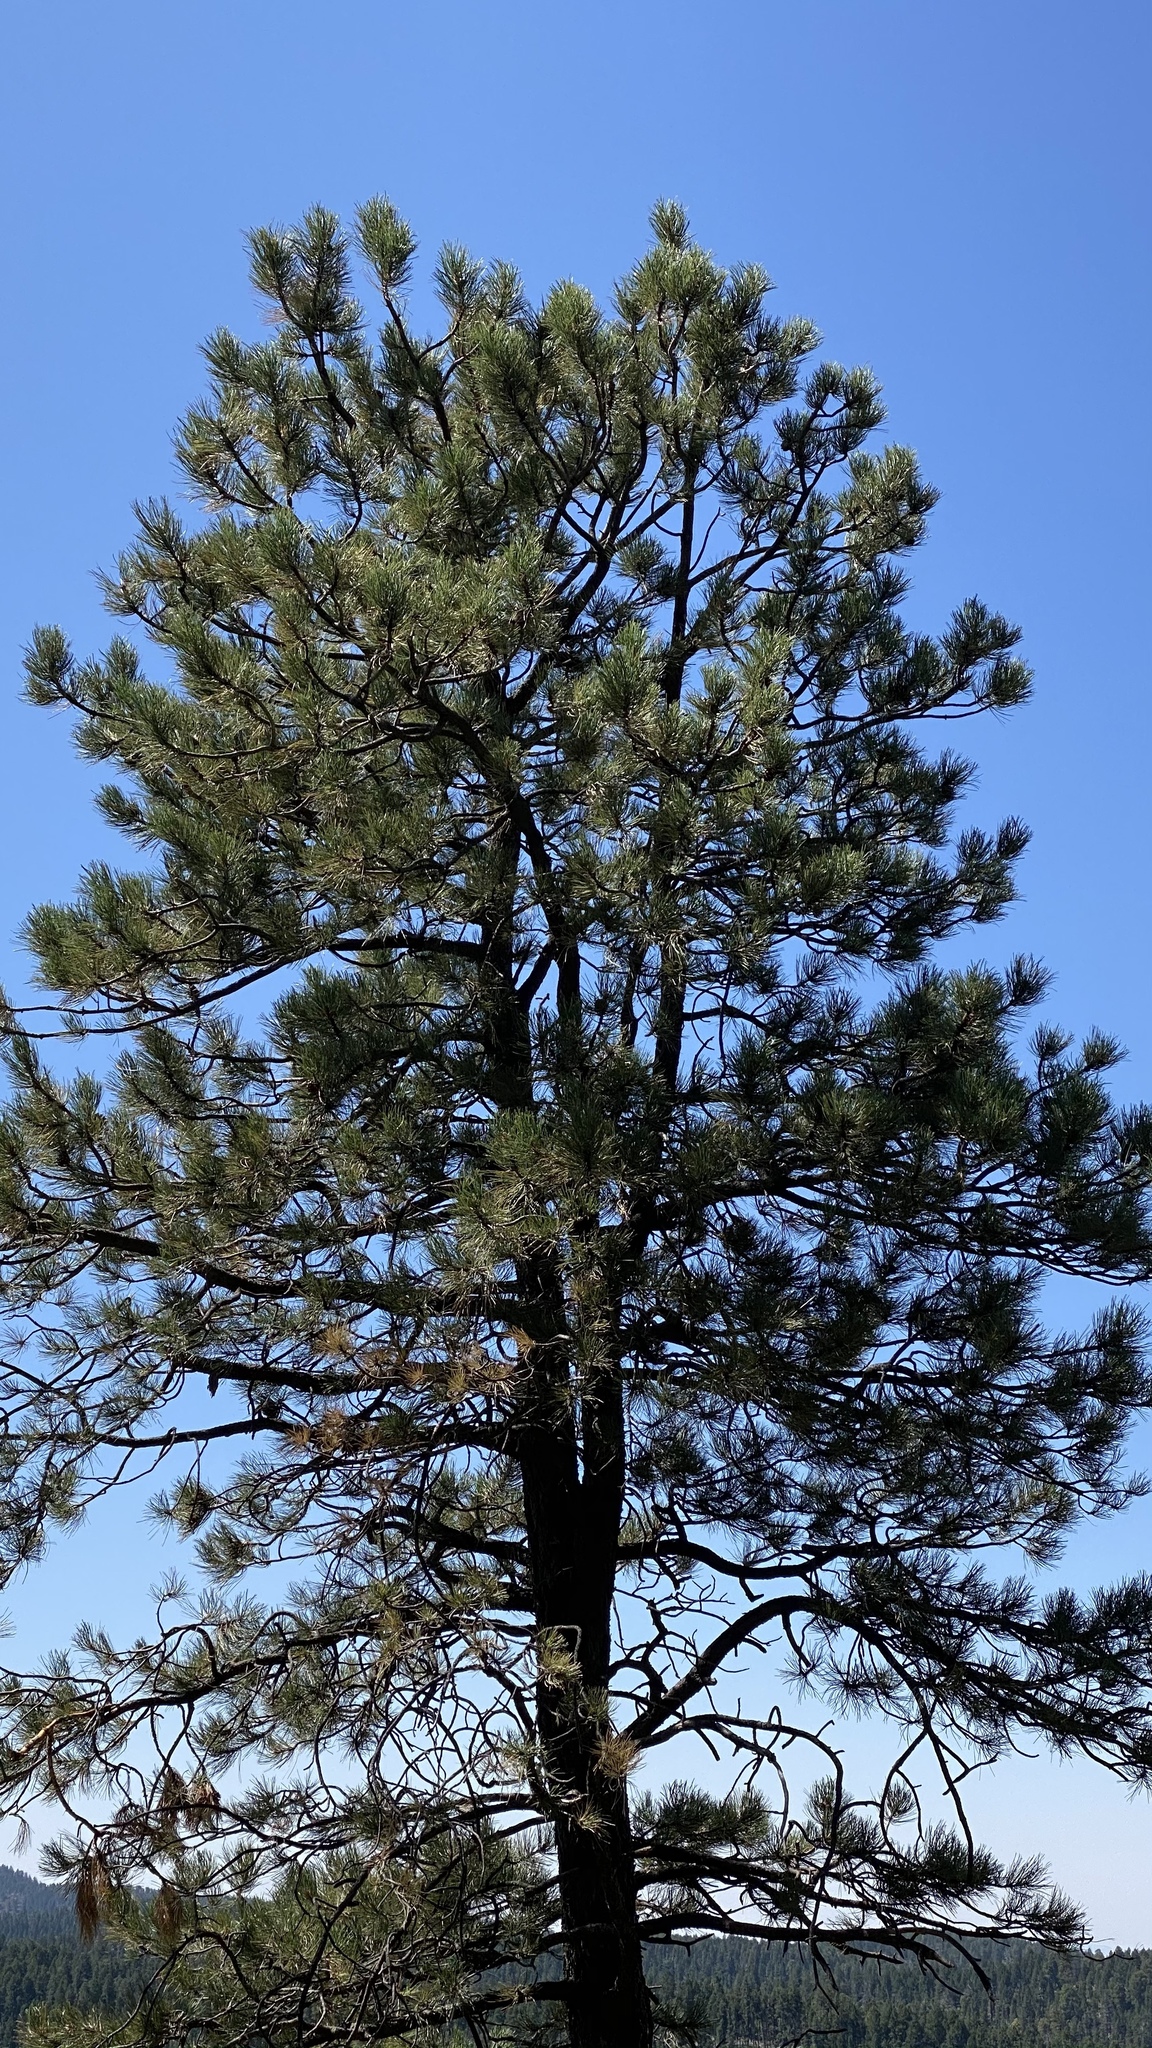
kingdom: Plantae
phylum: Tracheophyta
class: Pinopsida
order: Pinales
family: Pinaceae
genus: Pinus
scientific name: Pinus ponderosa
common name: Western yellow-pine
